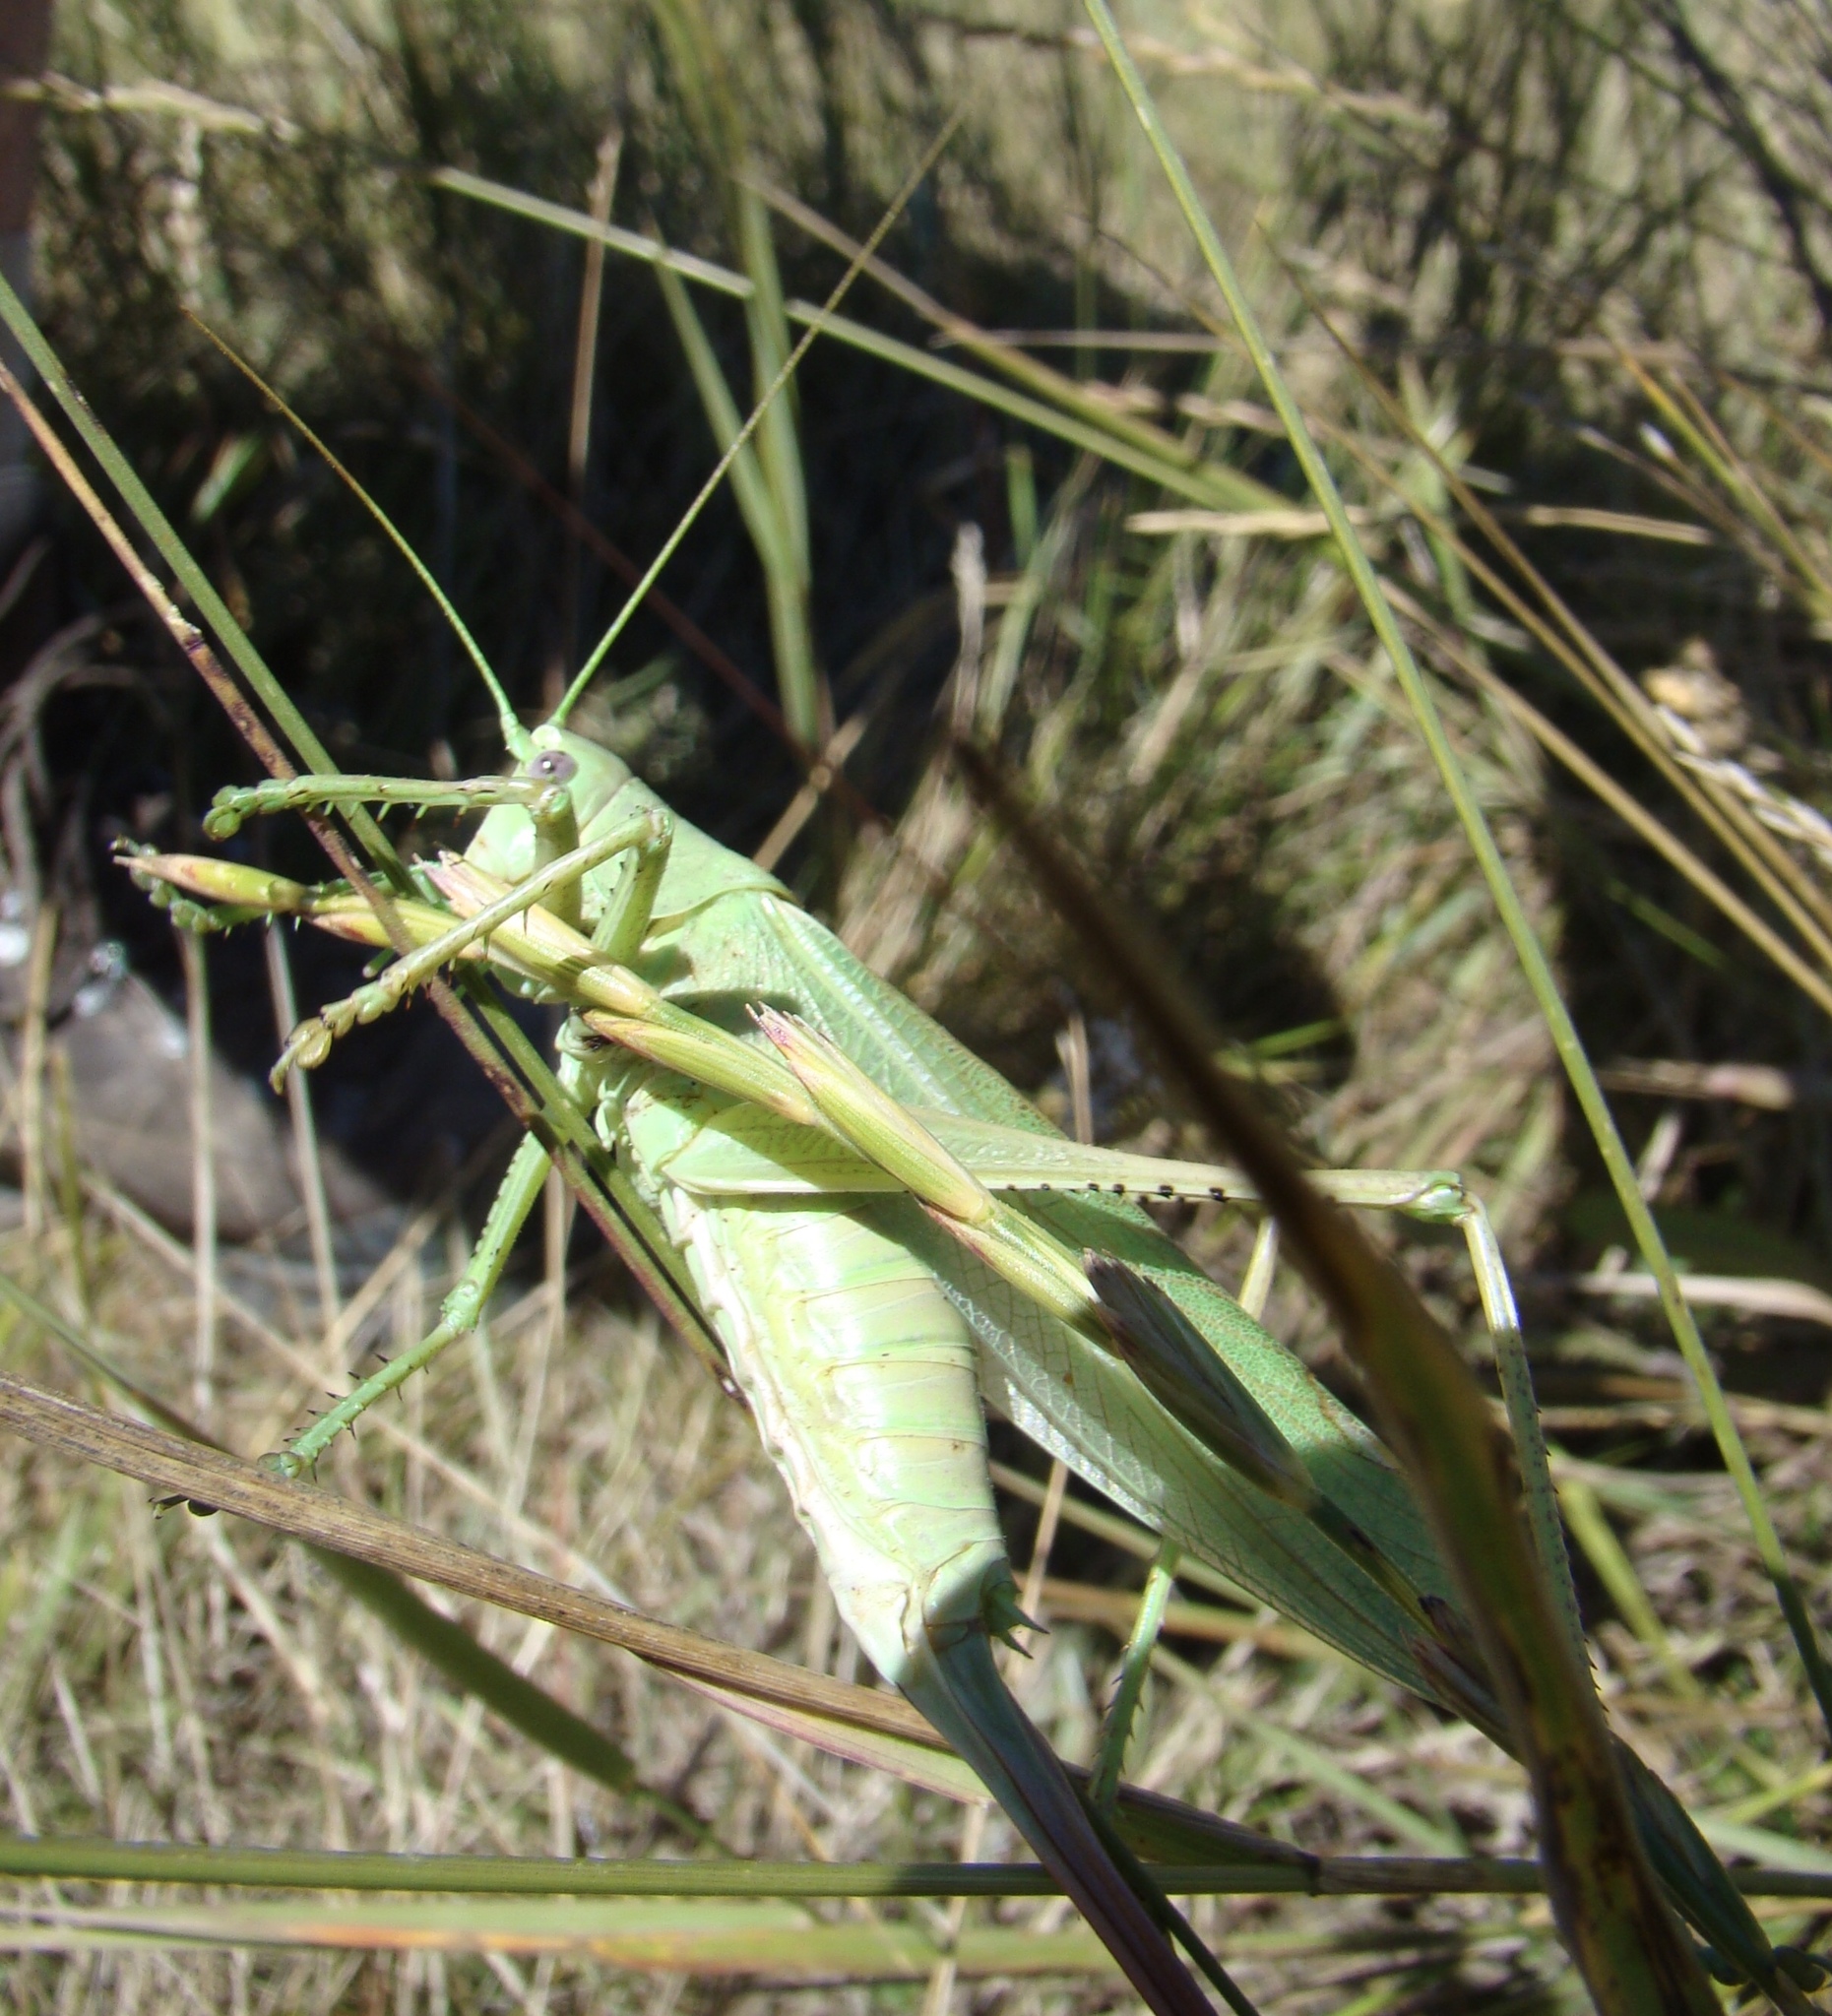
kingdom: Animalia
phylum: Arthropoda
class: Insecta
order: Orthoptera
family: Tettigoniidae
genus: Tettigonia
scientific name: Tettigonia caudata
